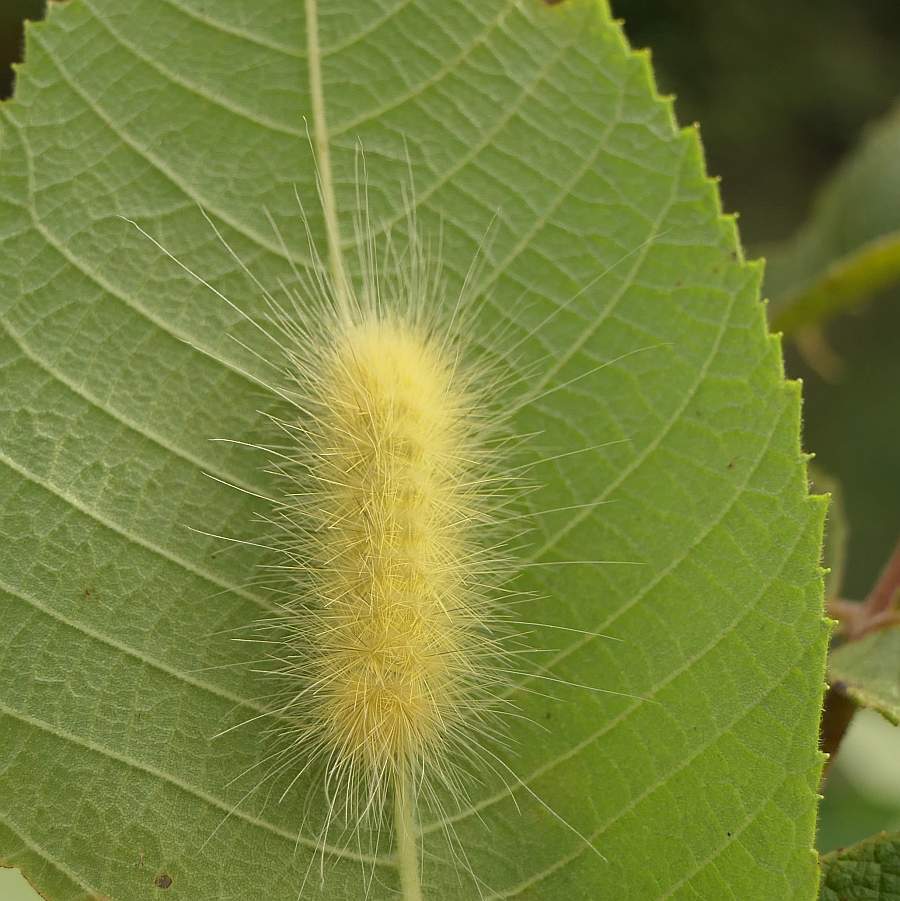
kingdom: Animalia
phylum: Arthropoda
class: Insecta
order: Lepidoptera
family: Erebidae
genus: Spilosoma
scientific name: Spilosoma virginica
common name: Virginia tiger moth
